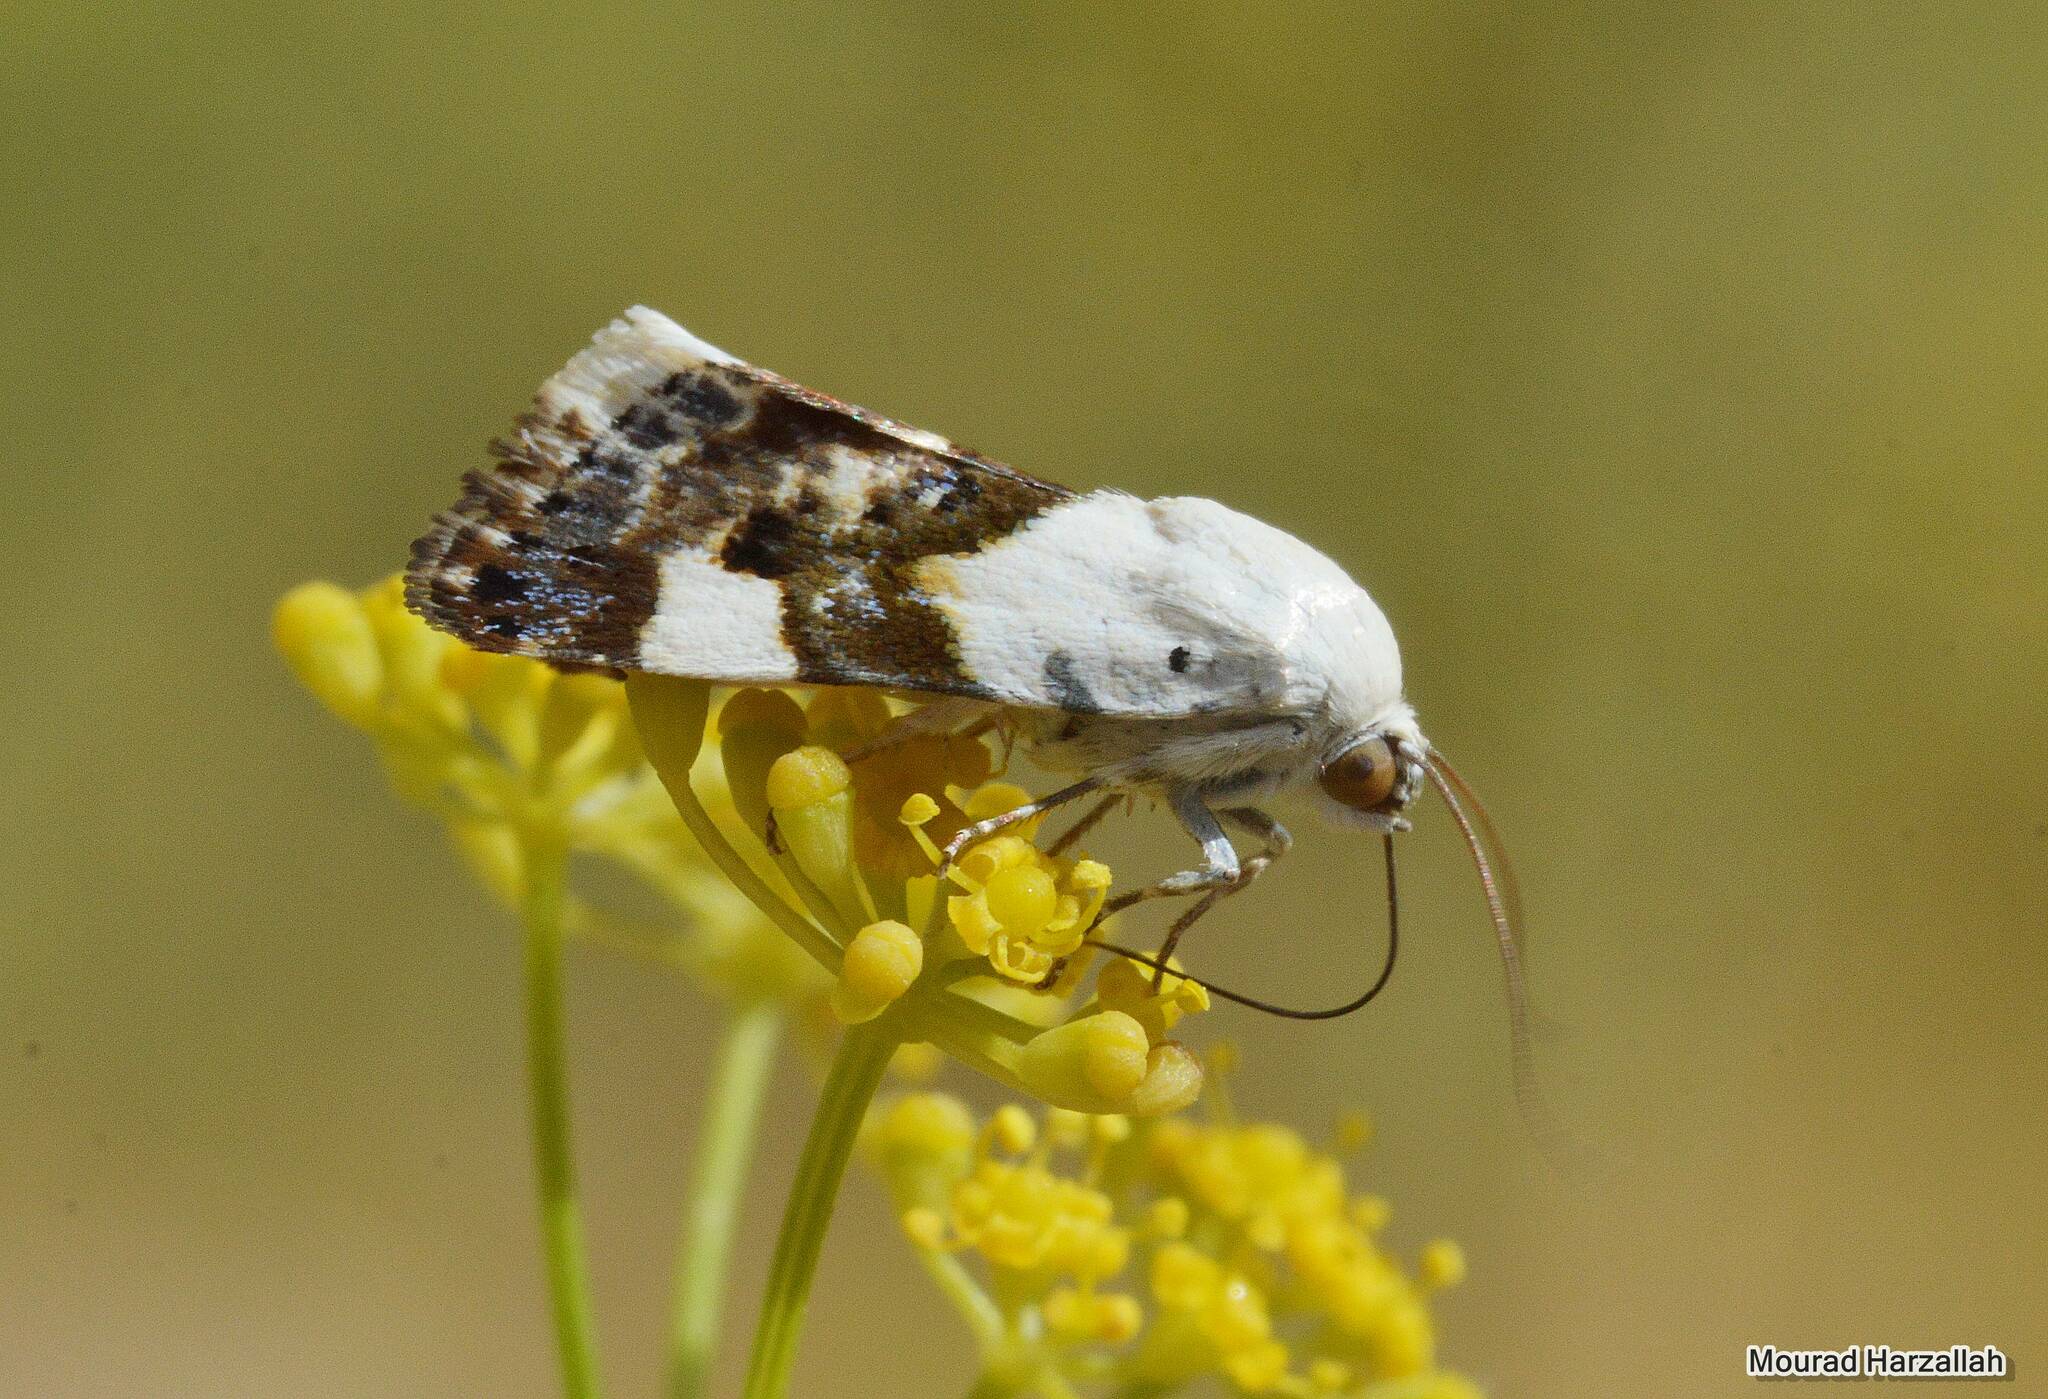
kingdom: Animalia
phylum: Arthropoda
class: Insecta
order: Lepidoptera
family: Noctuidae
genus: Acontia
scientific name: Acontia lucida
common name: Pale shoulder
